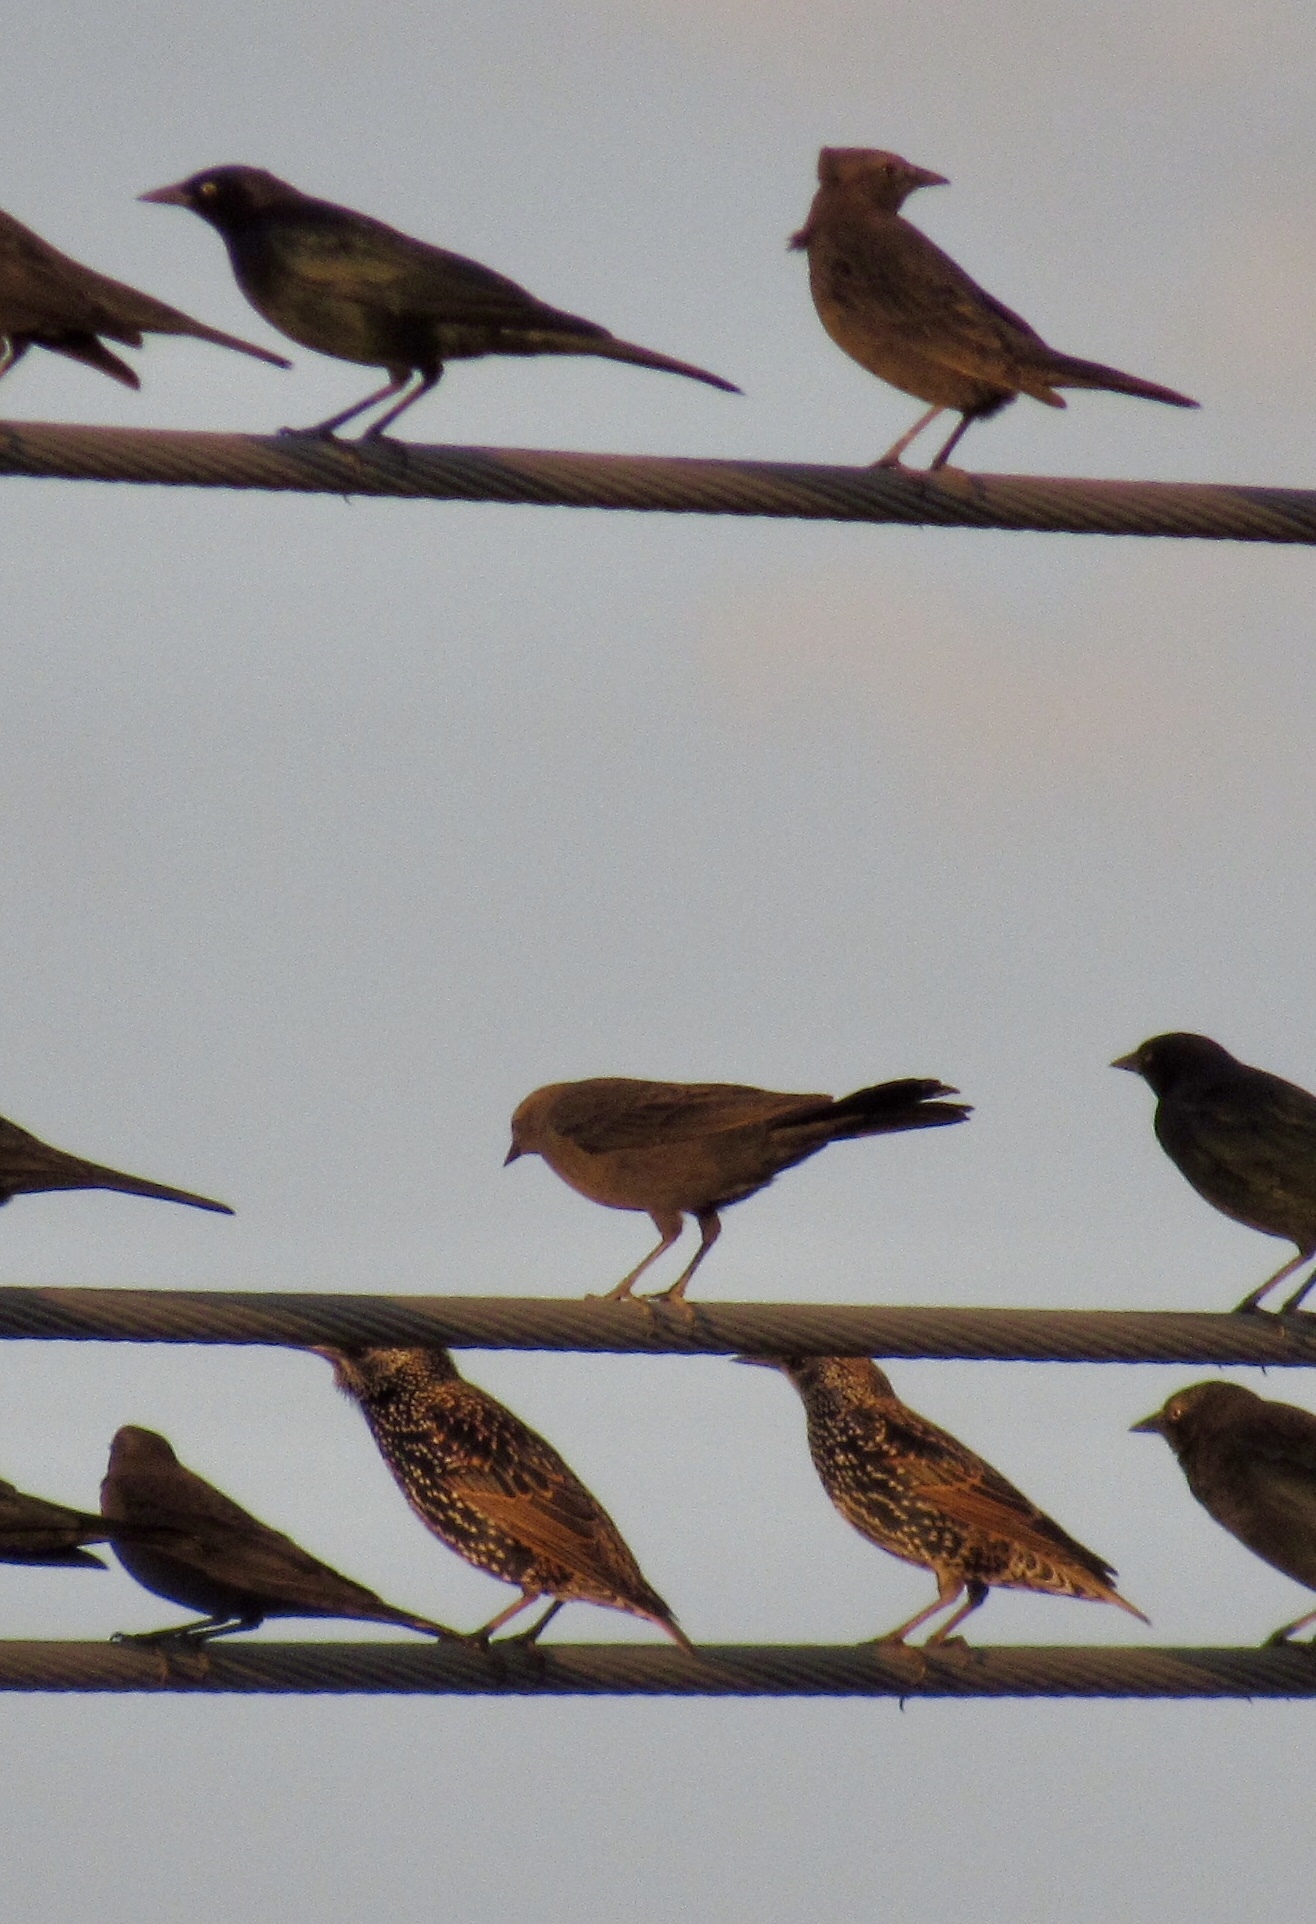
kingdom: Animalia
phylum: Chordata
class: Aves
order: Passeriformes
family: Sturnidae
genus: Sturnus
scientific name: Sturnus vulgaris
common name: Common starling
